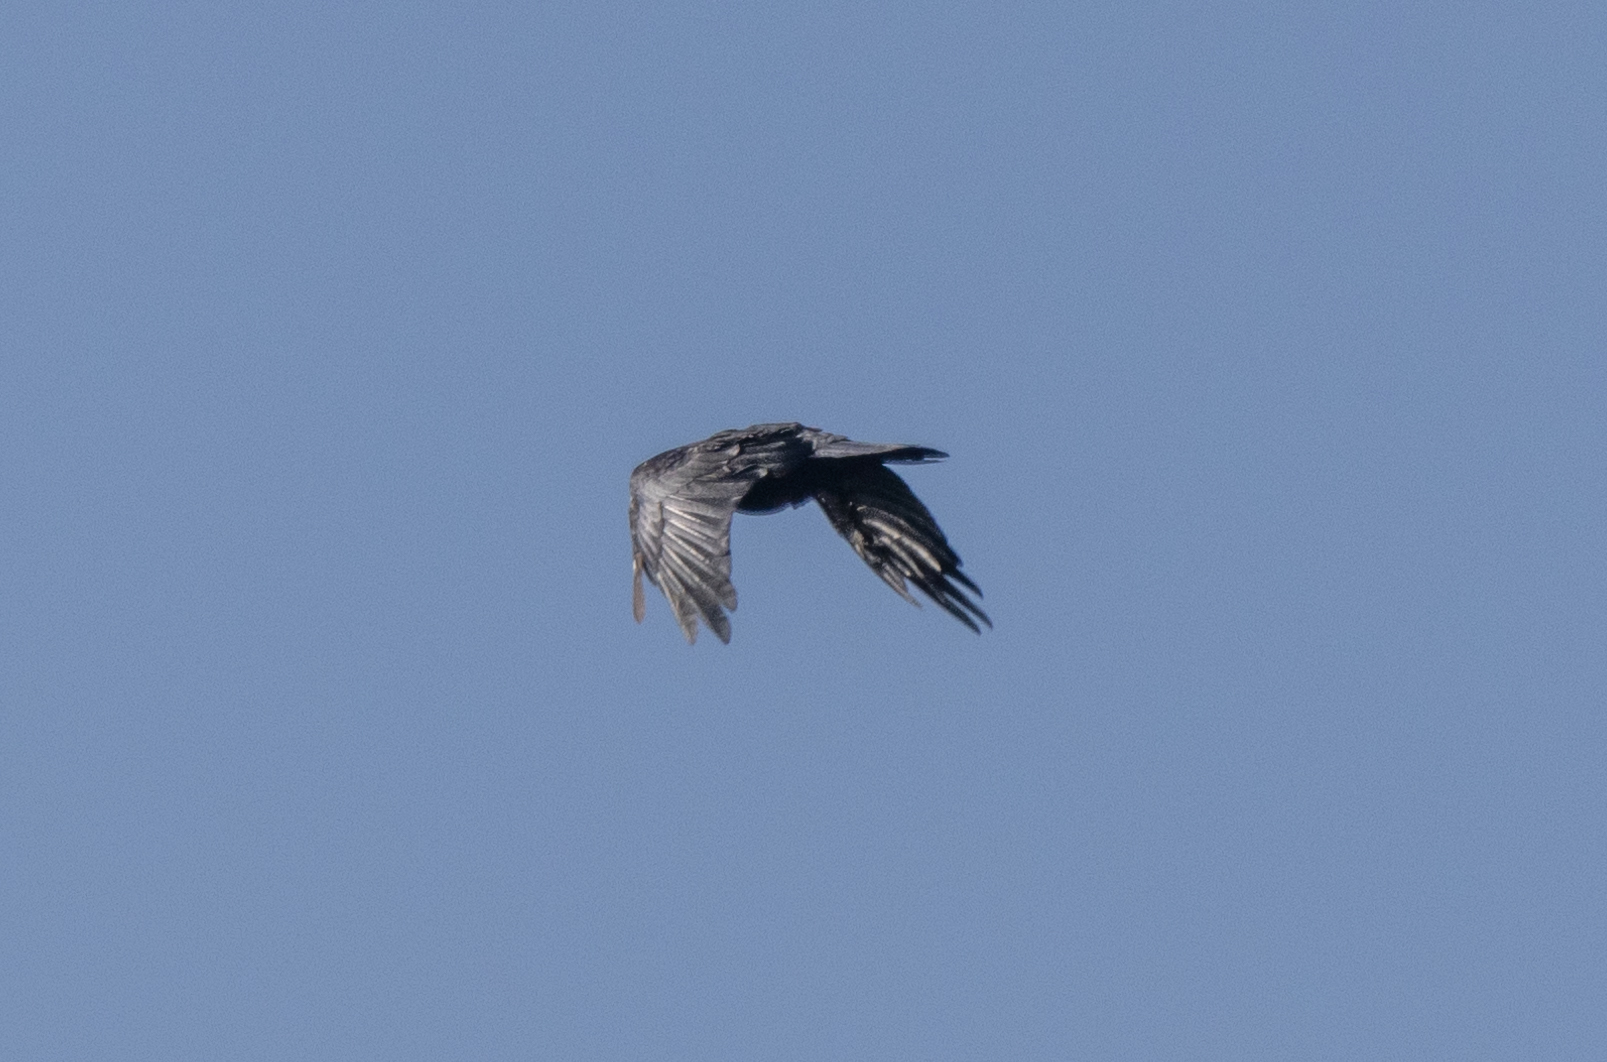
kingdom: Animalia
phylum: Chordata
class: Aves
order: Passeriformes
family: Corvidae
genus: Corvus
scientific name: Corvus brachyrhynchos
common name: American crow
